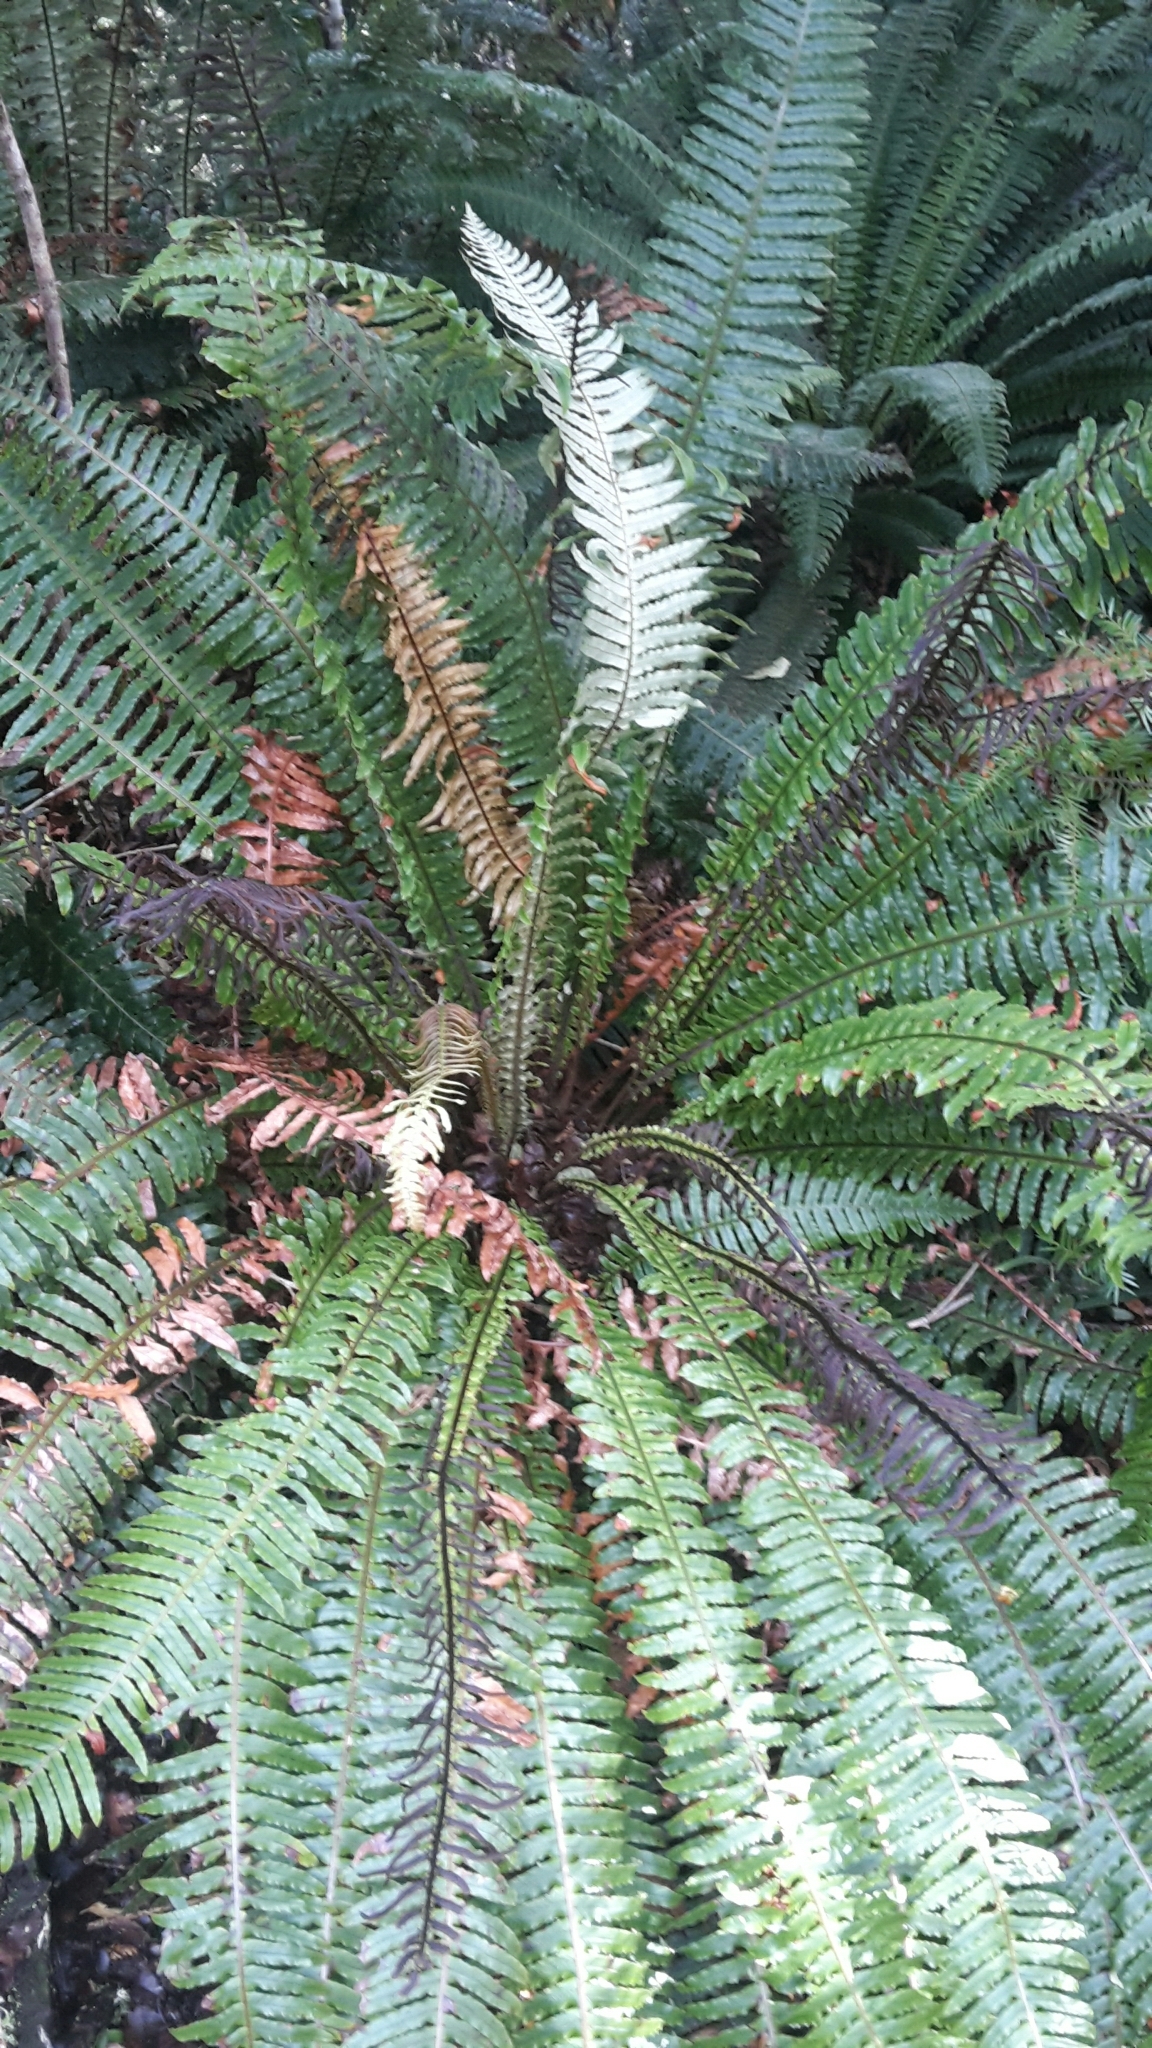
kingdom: Plantae
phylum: Tracheophyta
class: Polypodiopsida
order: Polypodiales
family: Blechnaceae
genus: Lomaria
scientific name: Lomaria discolor
